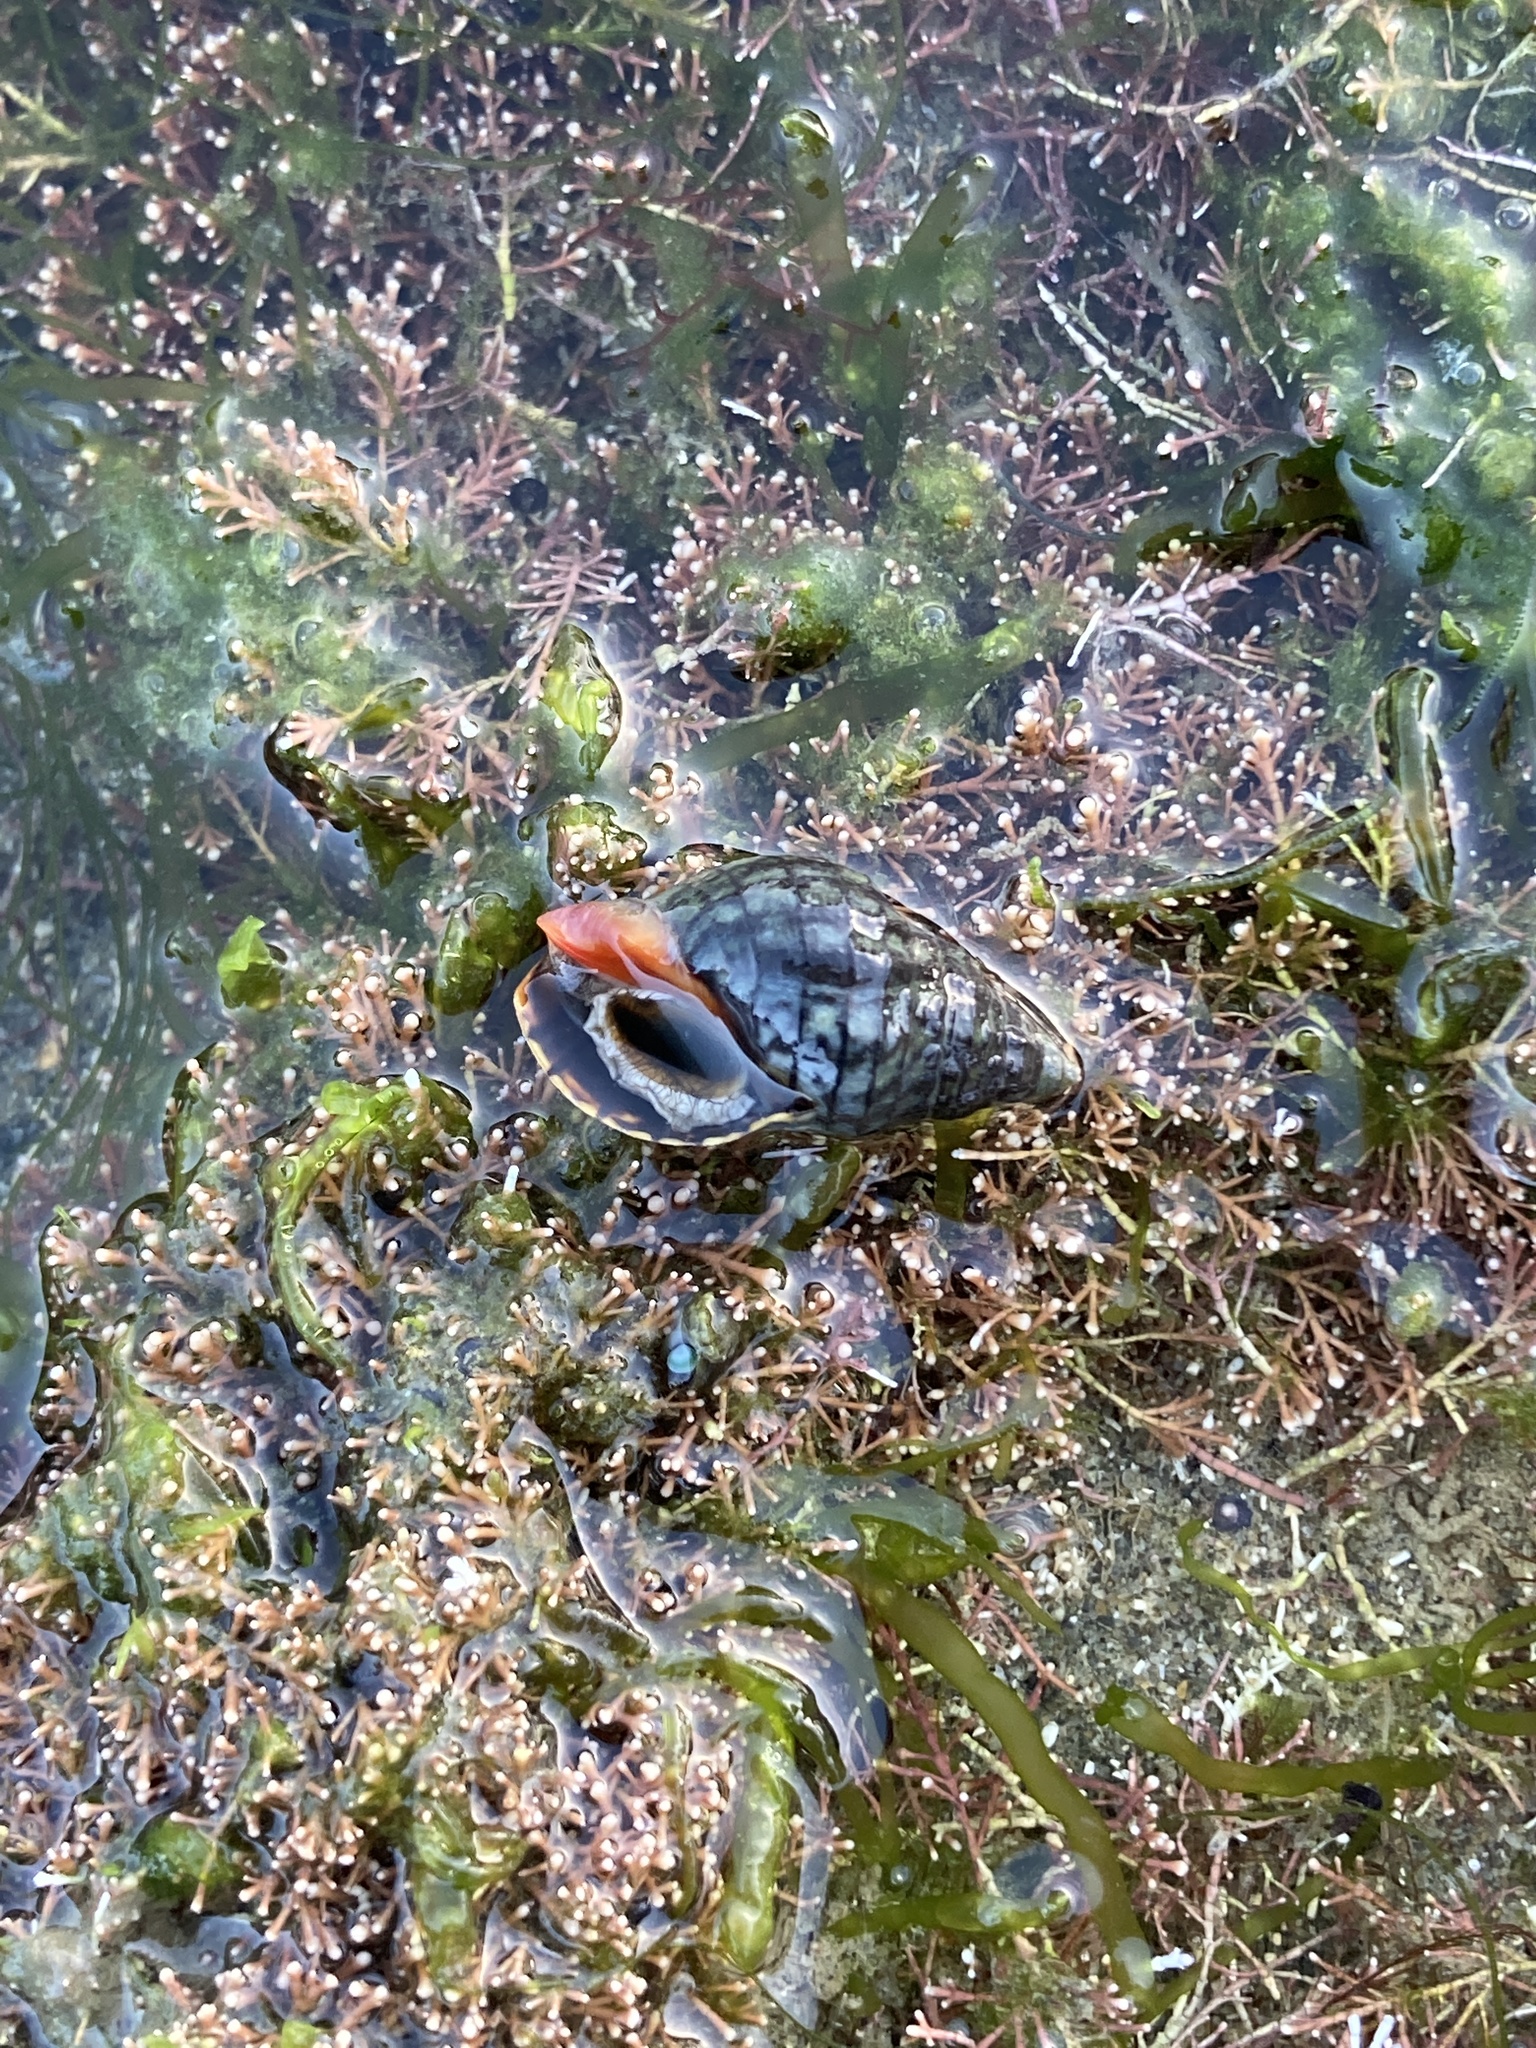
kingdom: Animalia
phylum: Mollusca
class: Gastropoda
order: Neogastropoda
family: Cominellidae
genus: Cominella
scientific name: Cominella virgata
